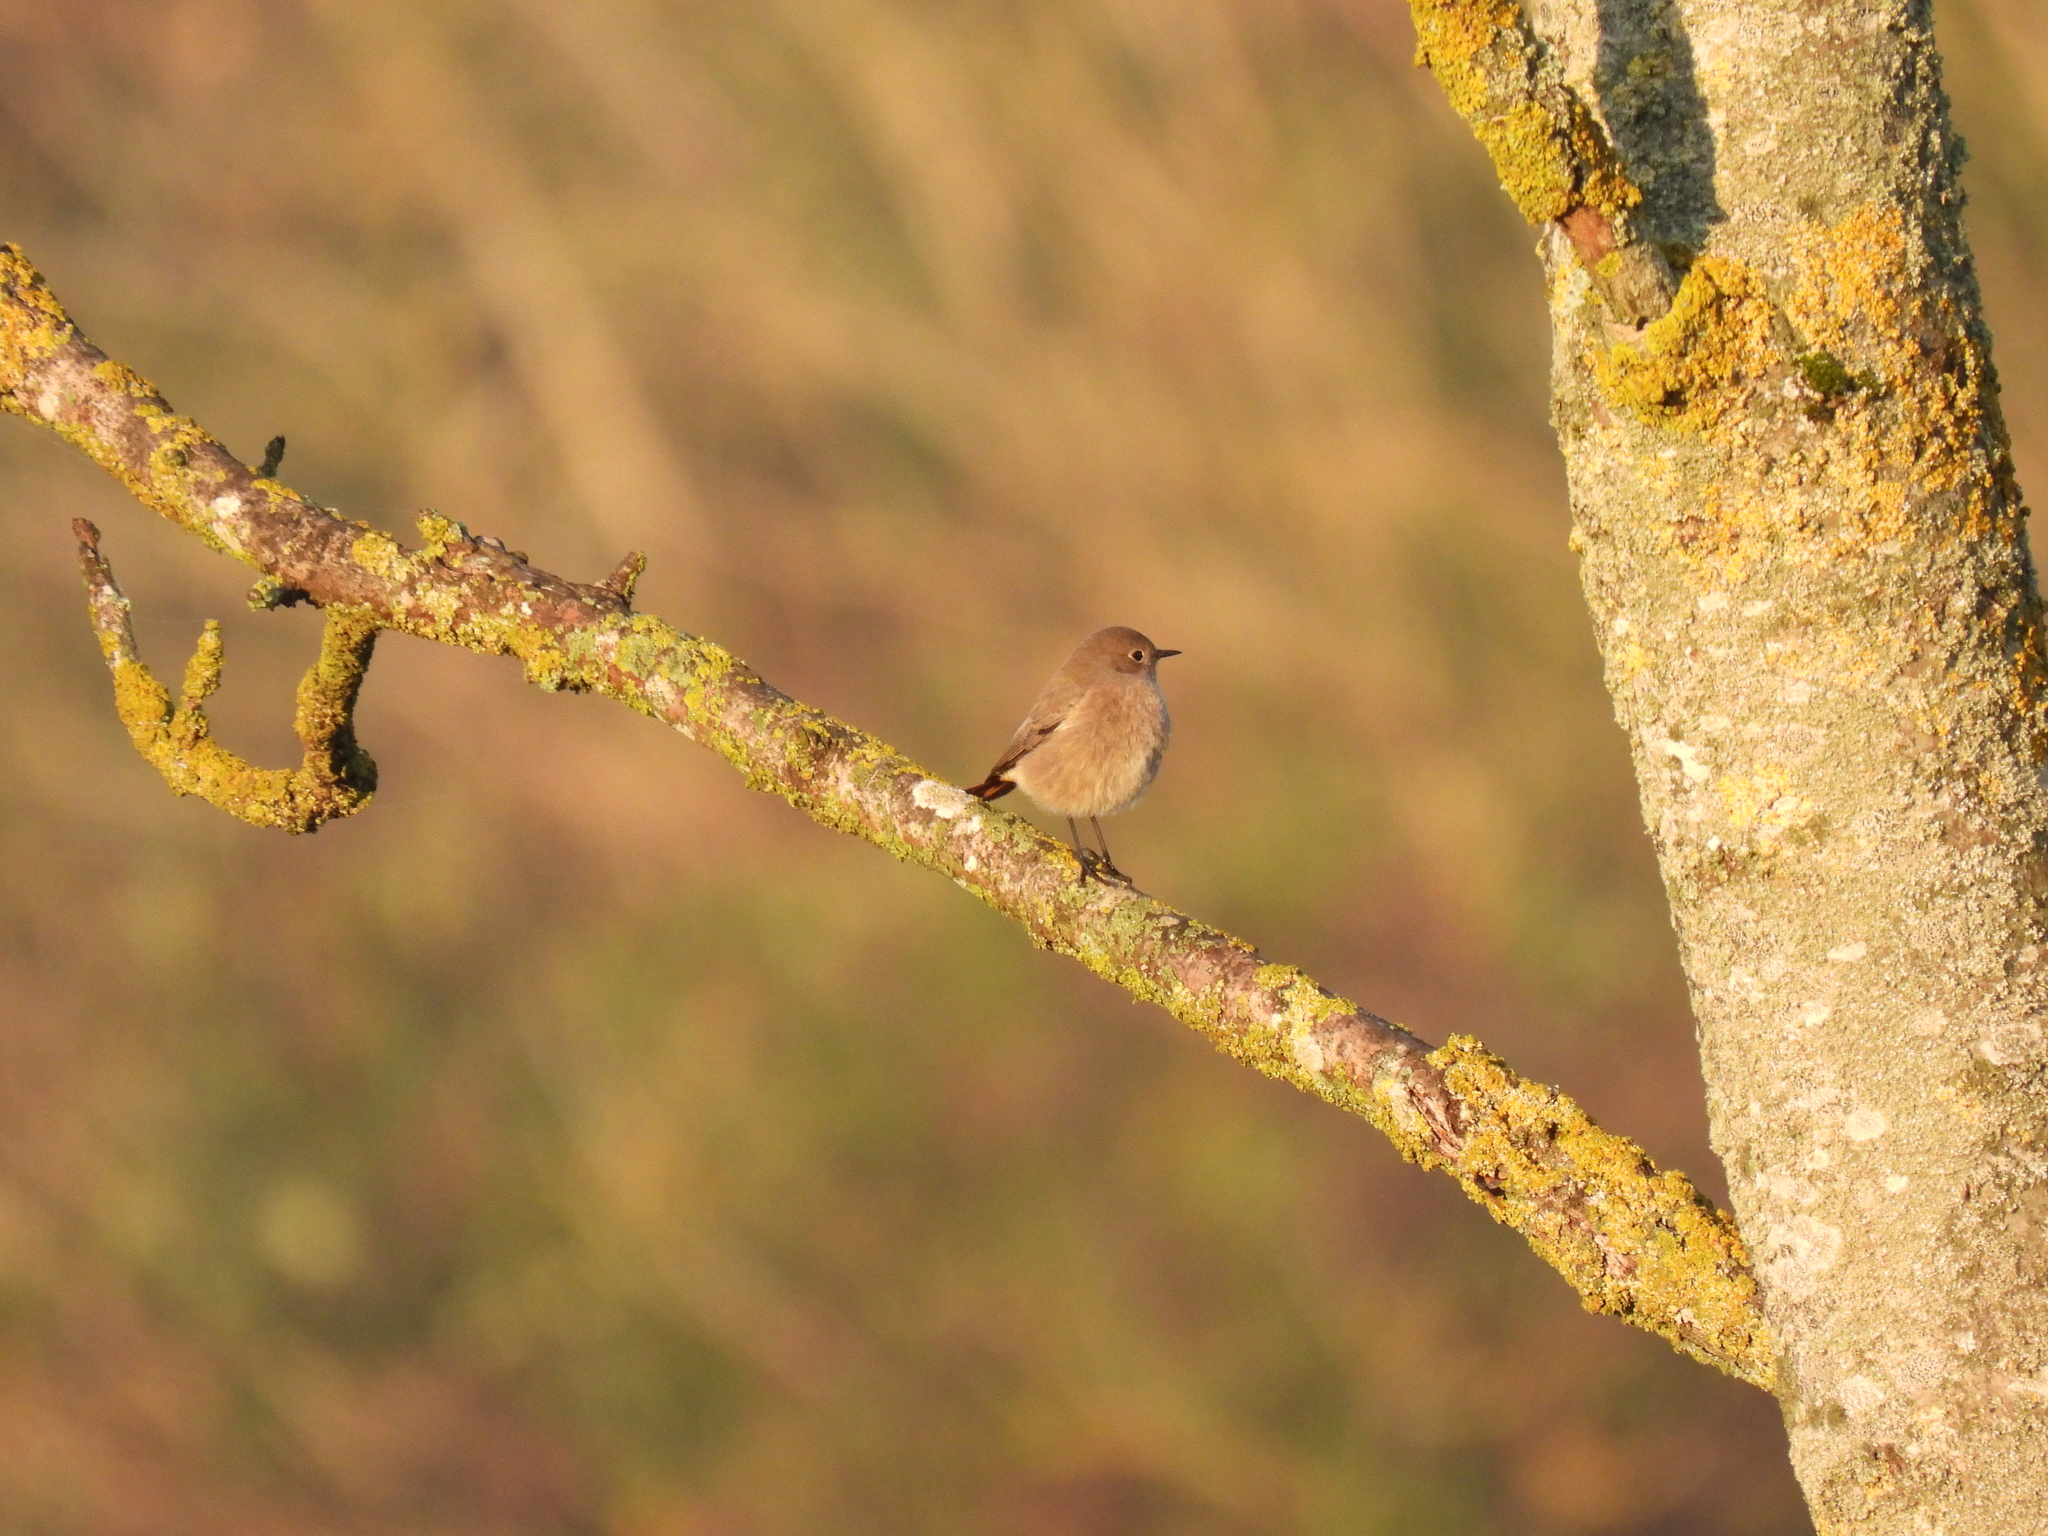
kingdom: Animalia
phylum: Chordata
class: Aves
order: Passeriformes
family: Muscicapidae
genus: Phoenicurus
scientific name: Phoenicurus ochruros
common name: Black redstart
